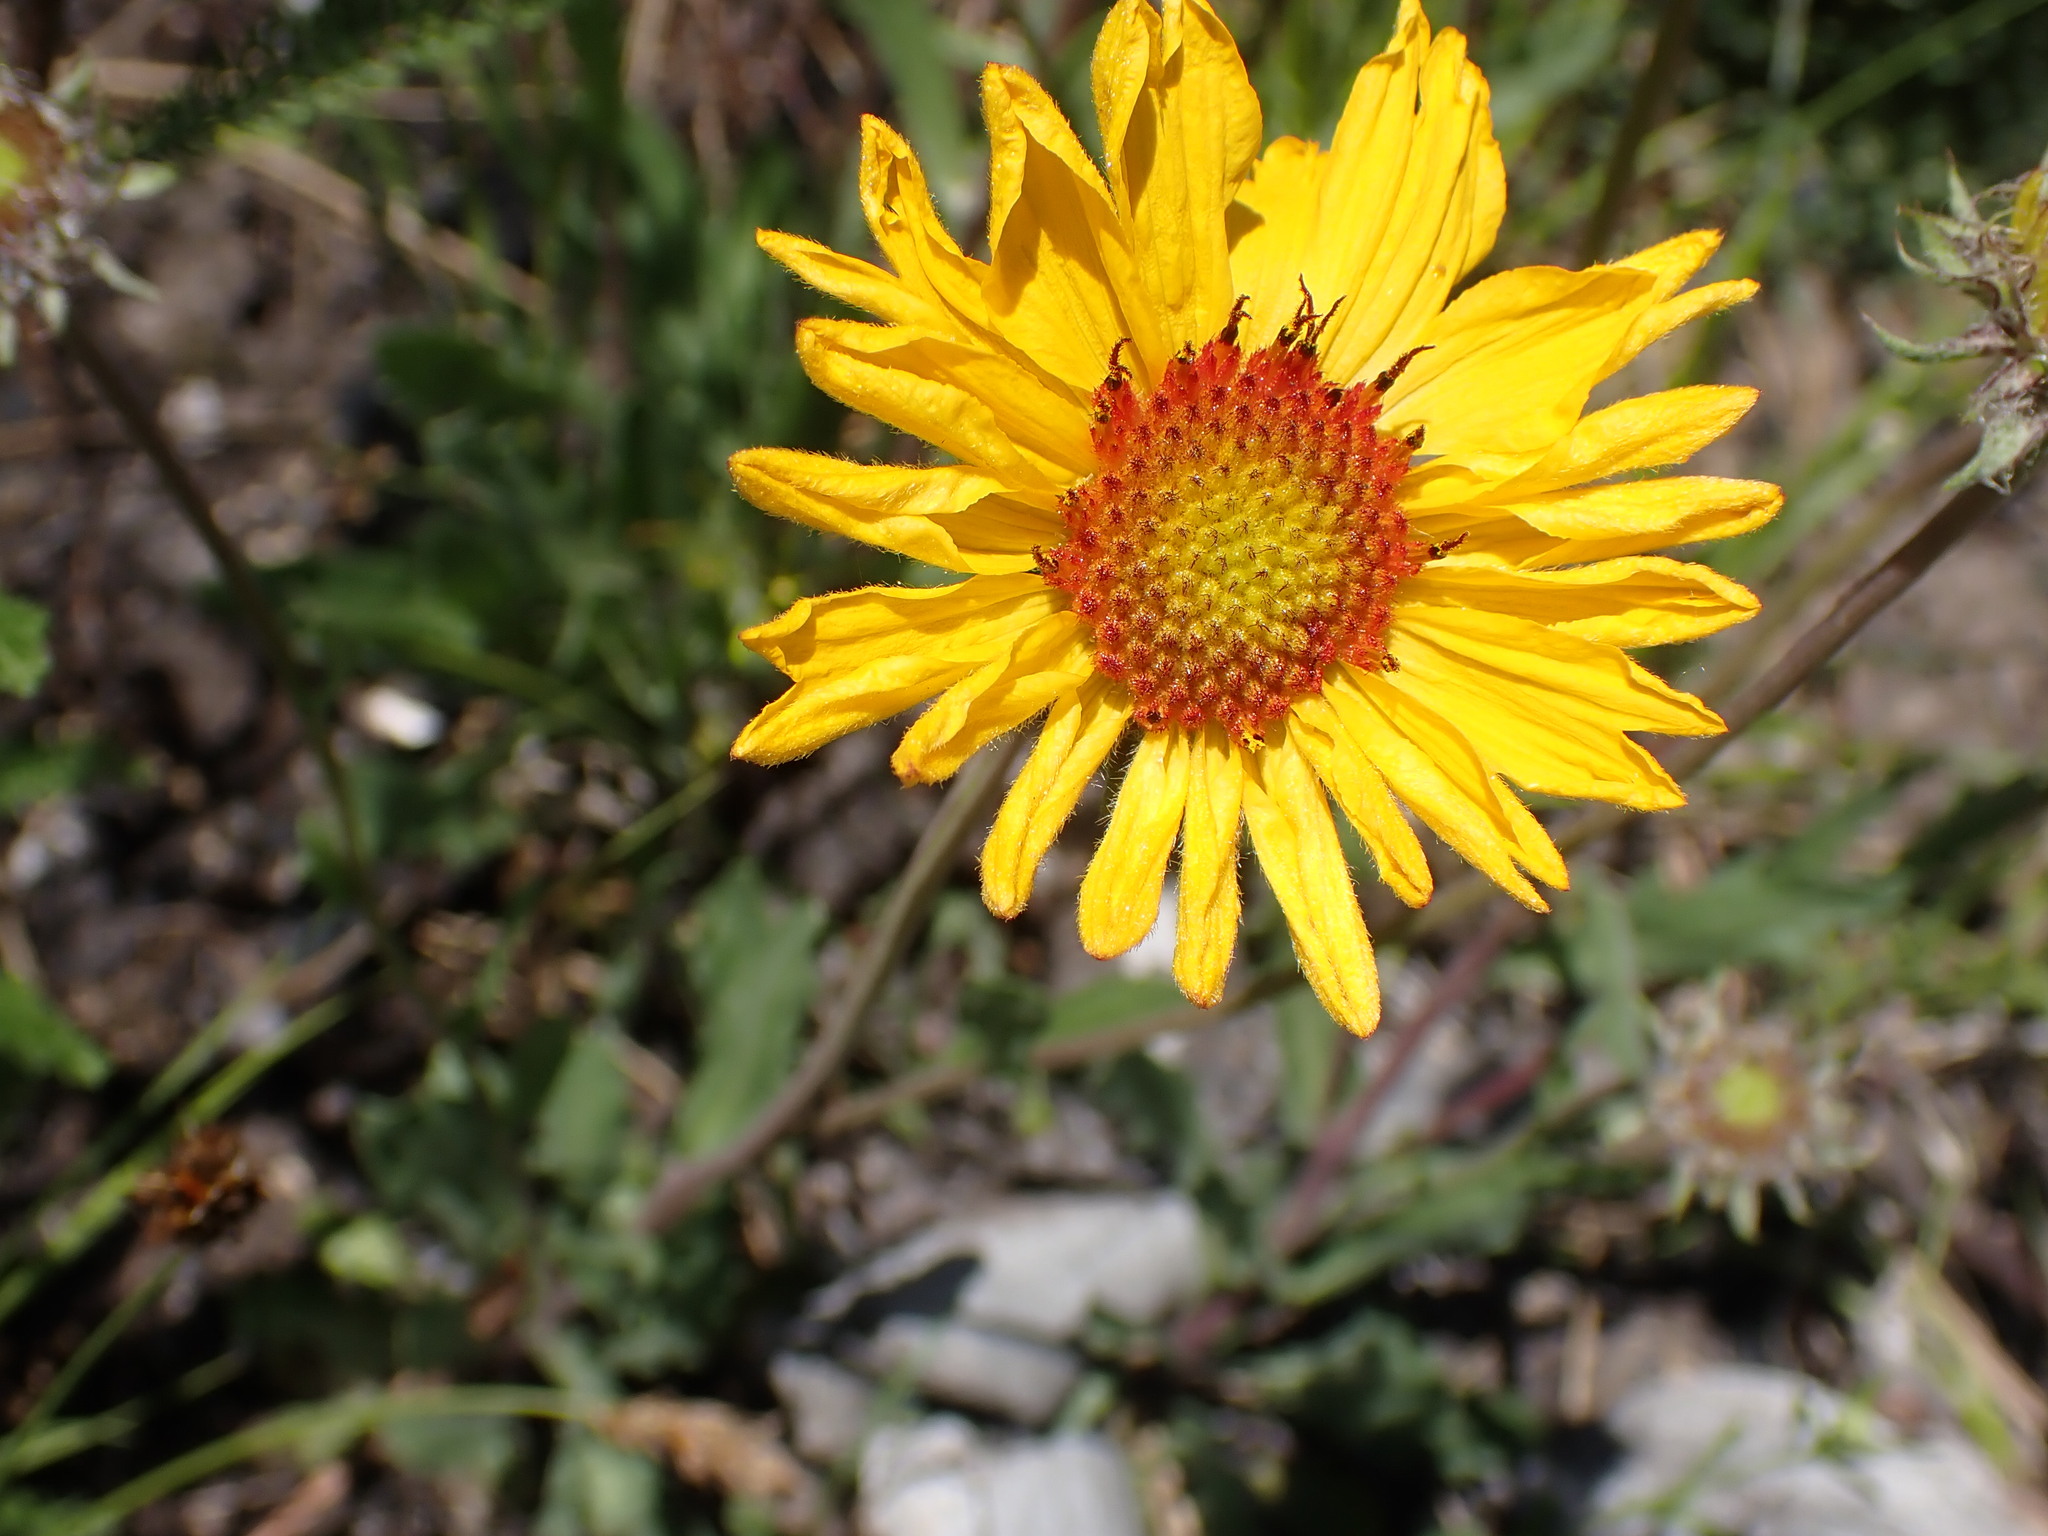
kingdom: Plantae
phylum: Tracheophyta
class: Magnoliopsida
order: Asterales
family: Asteraceae
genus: Gaillardia
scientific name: Gaillardia aristata
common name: Blanket-flower
